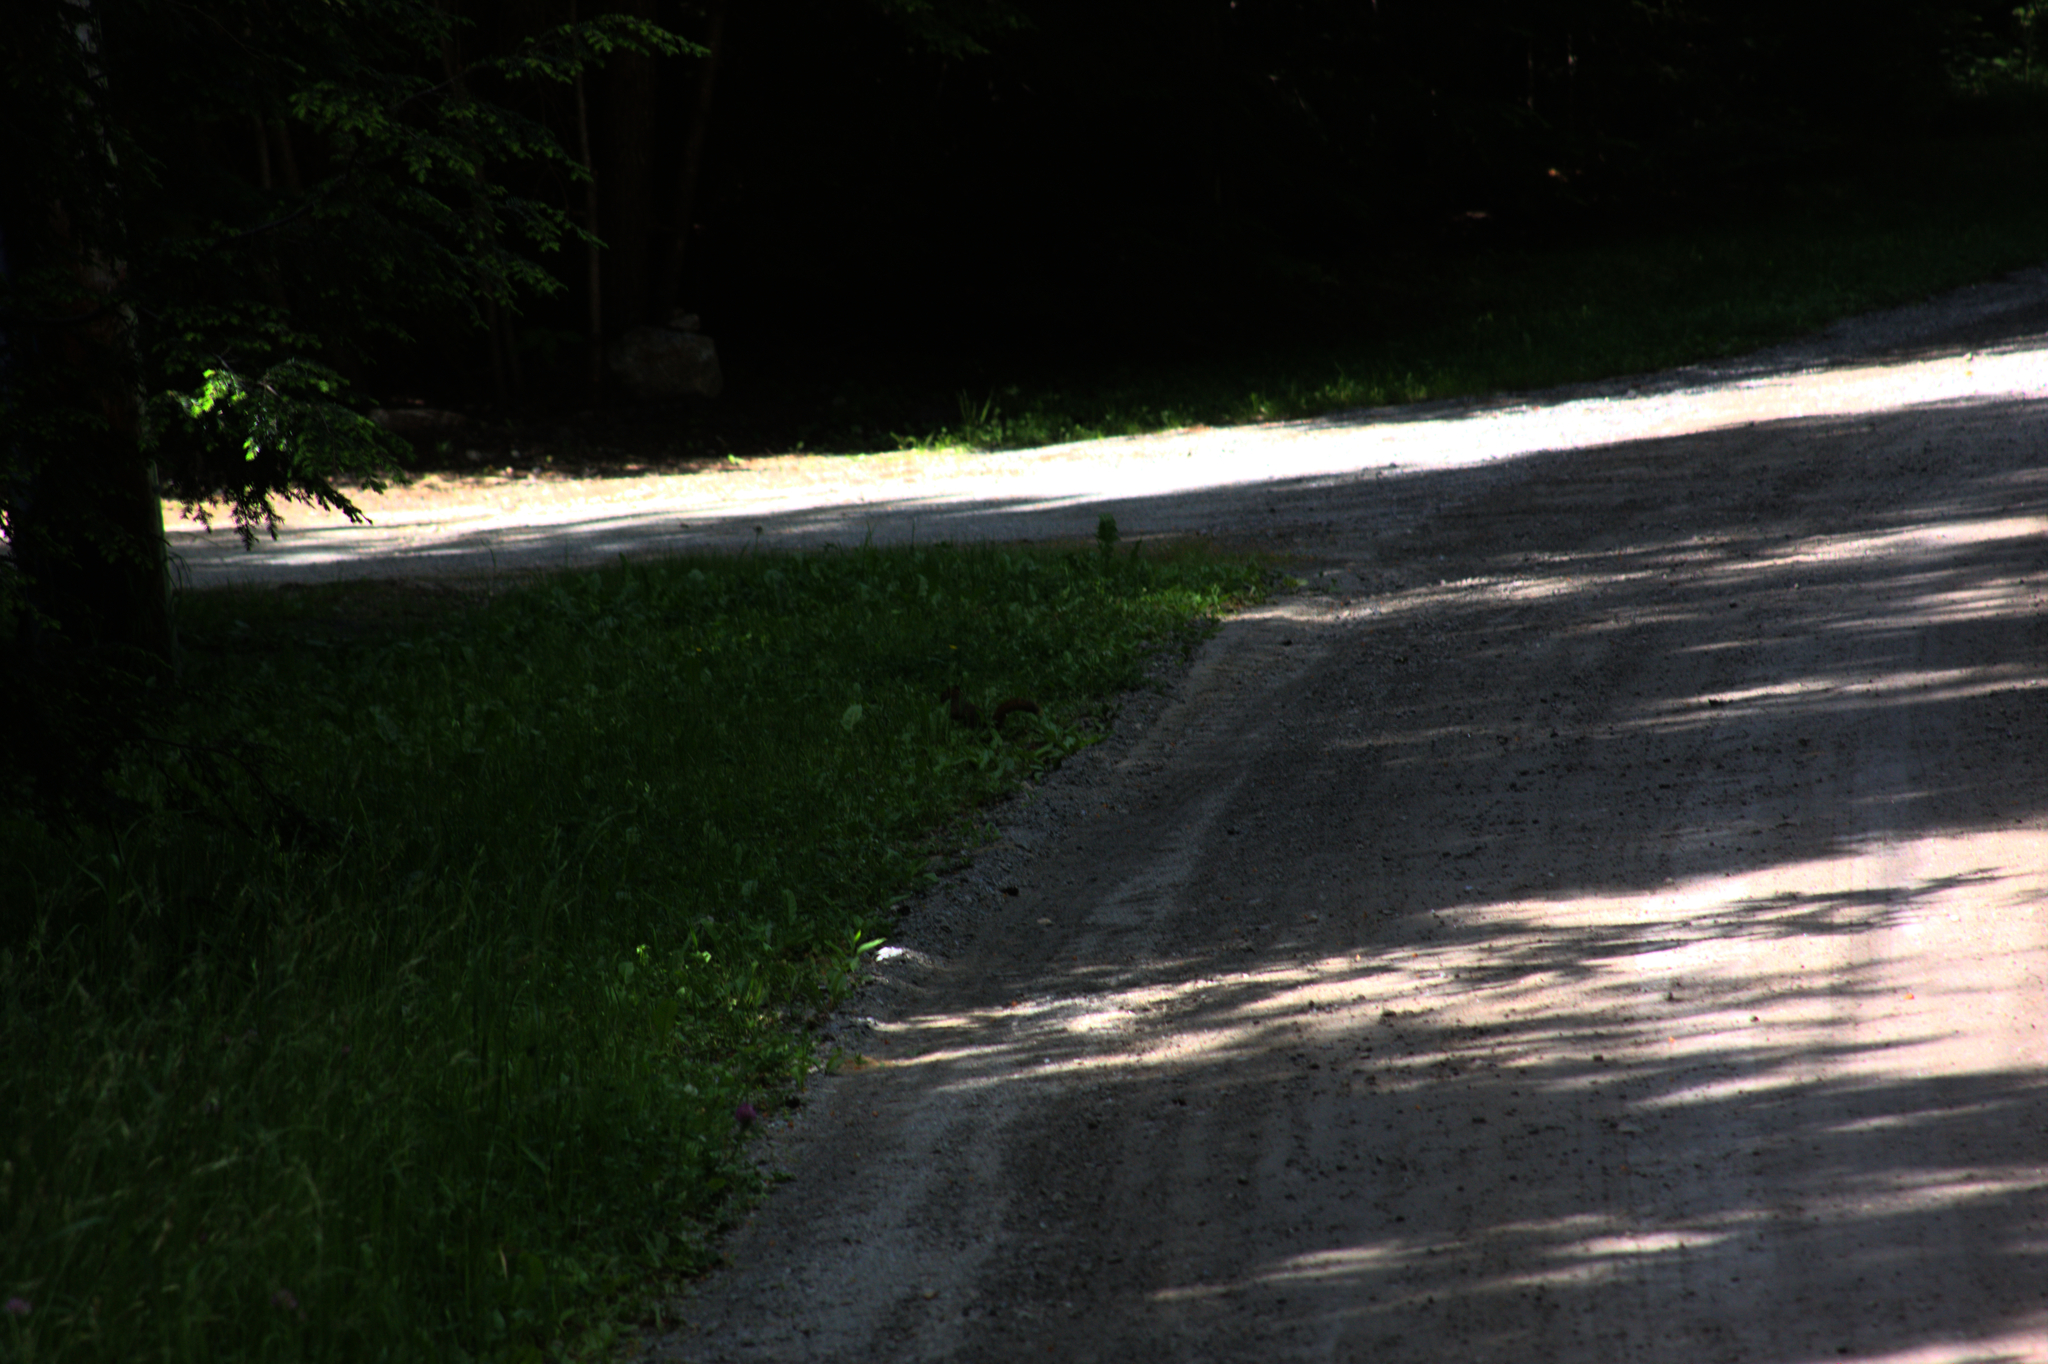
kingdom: Animalia
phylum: Chordata
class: Mammalia
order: Rodentia
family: Sciuridae
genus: Tamiasciurus
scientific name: Tamiasciurus hudsonicus
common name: Red squirrel
